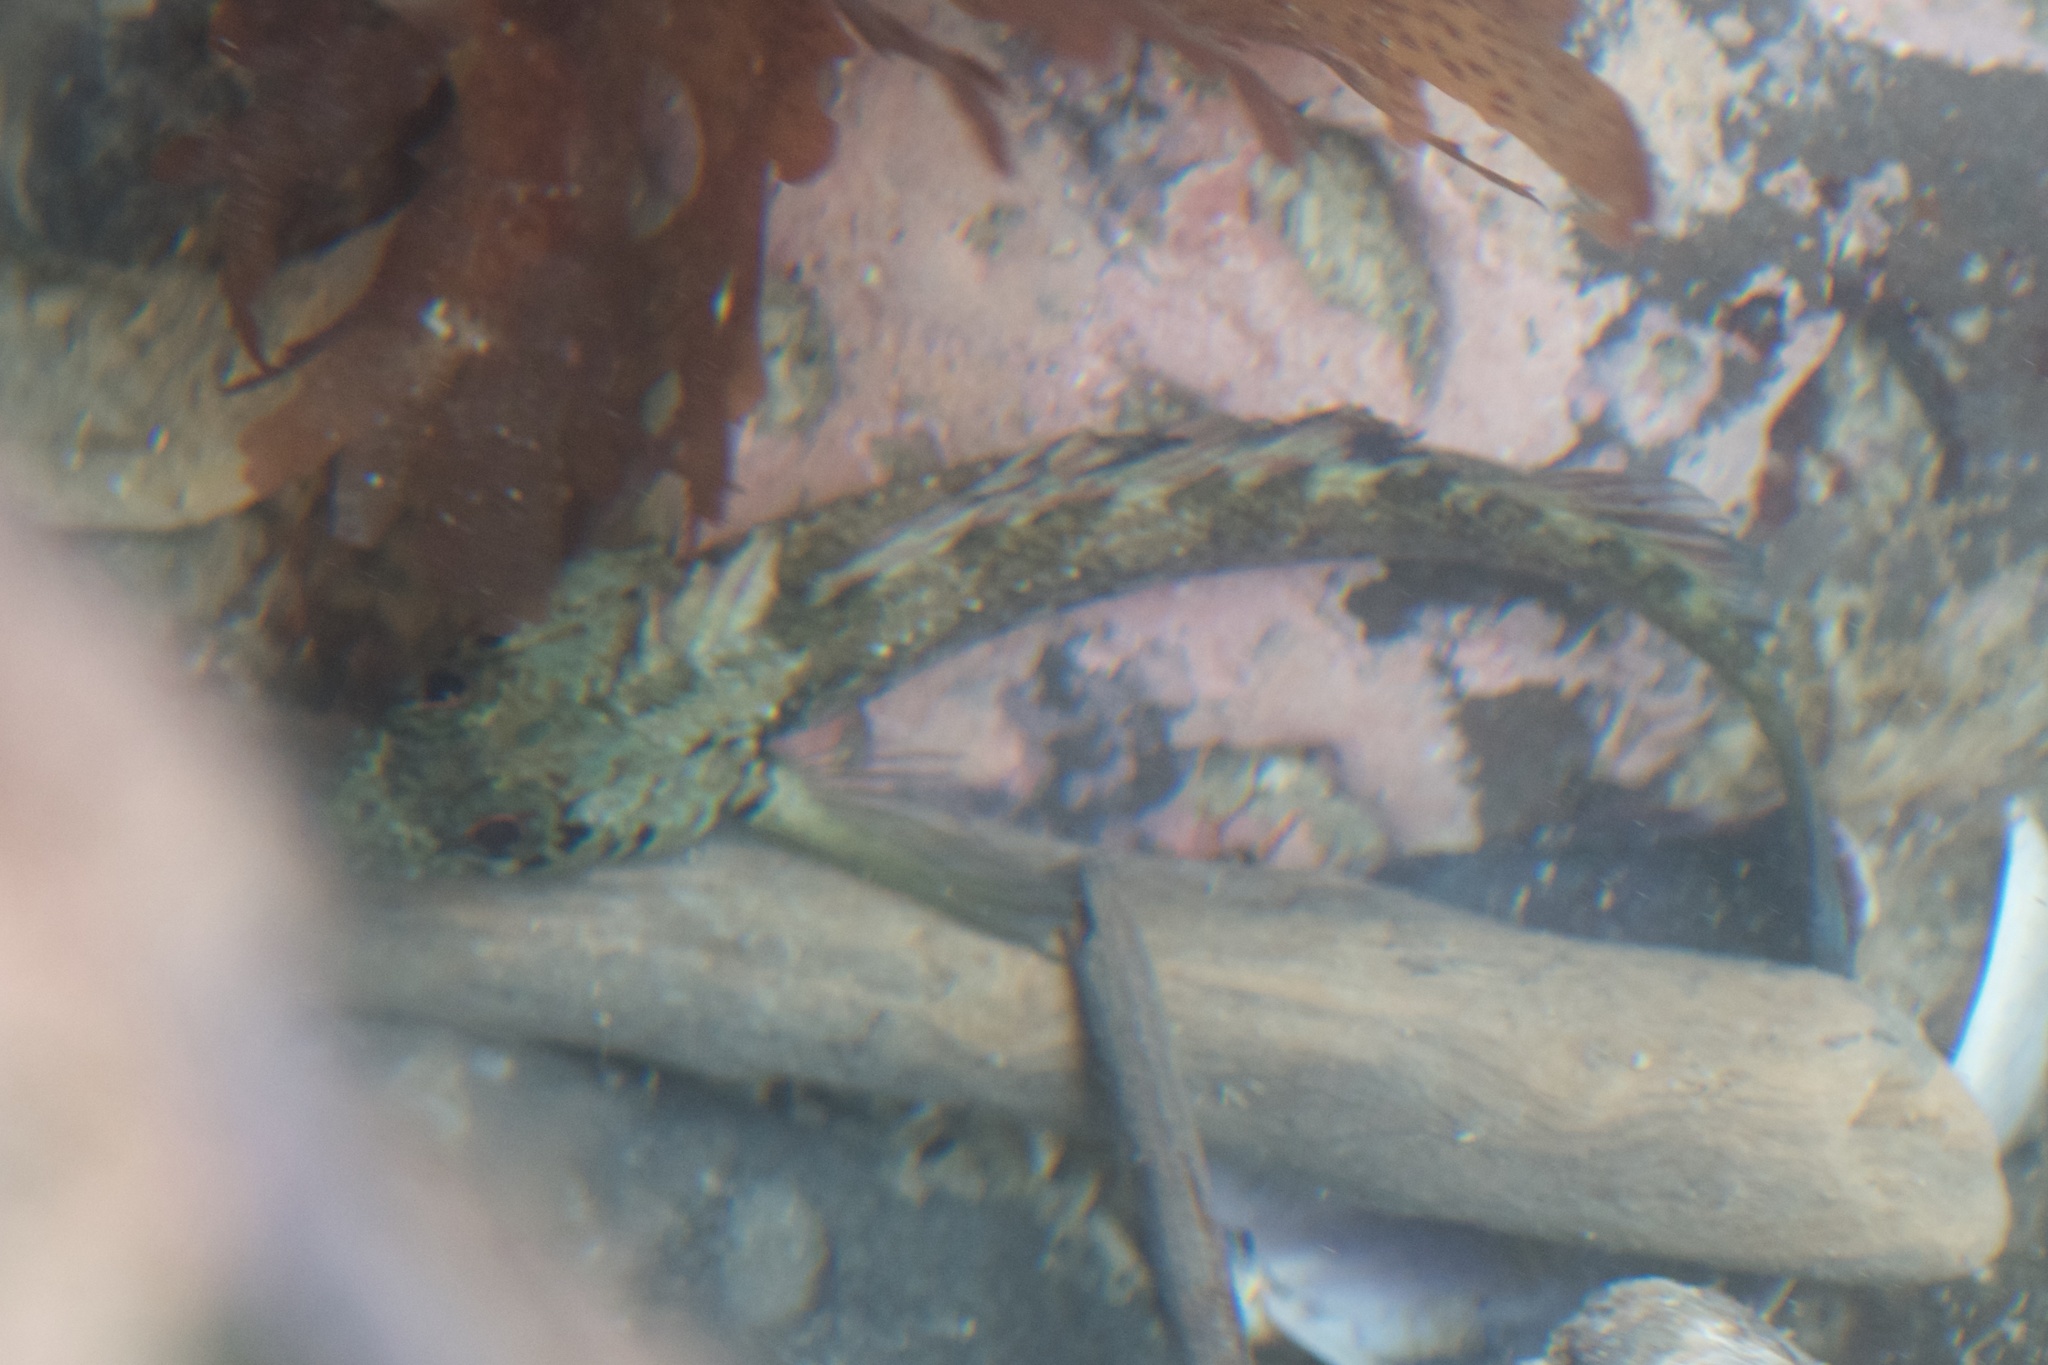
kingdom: Animalia
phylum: Chordata
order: Perciformes
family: Tripterygiidae
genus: Forsterygion
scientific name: Forsterygion capito
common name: Spotted robust triplefin
